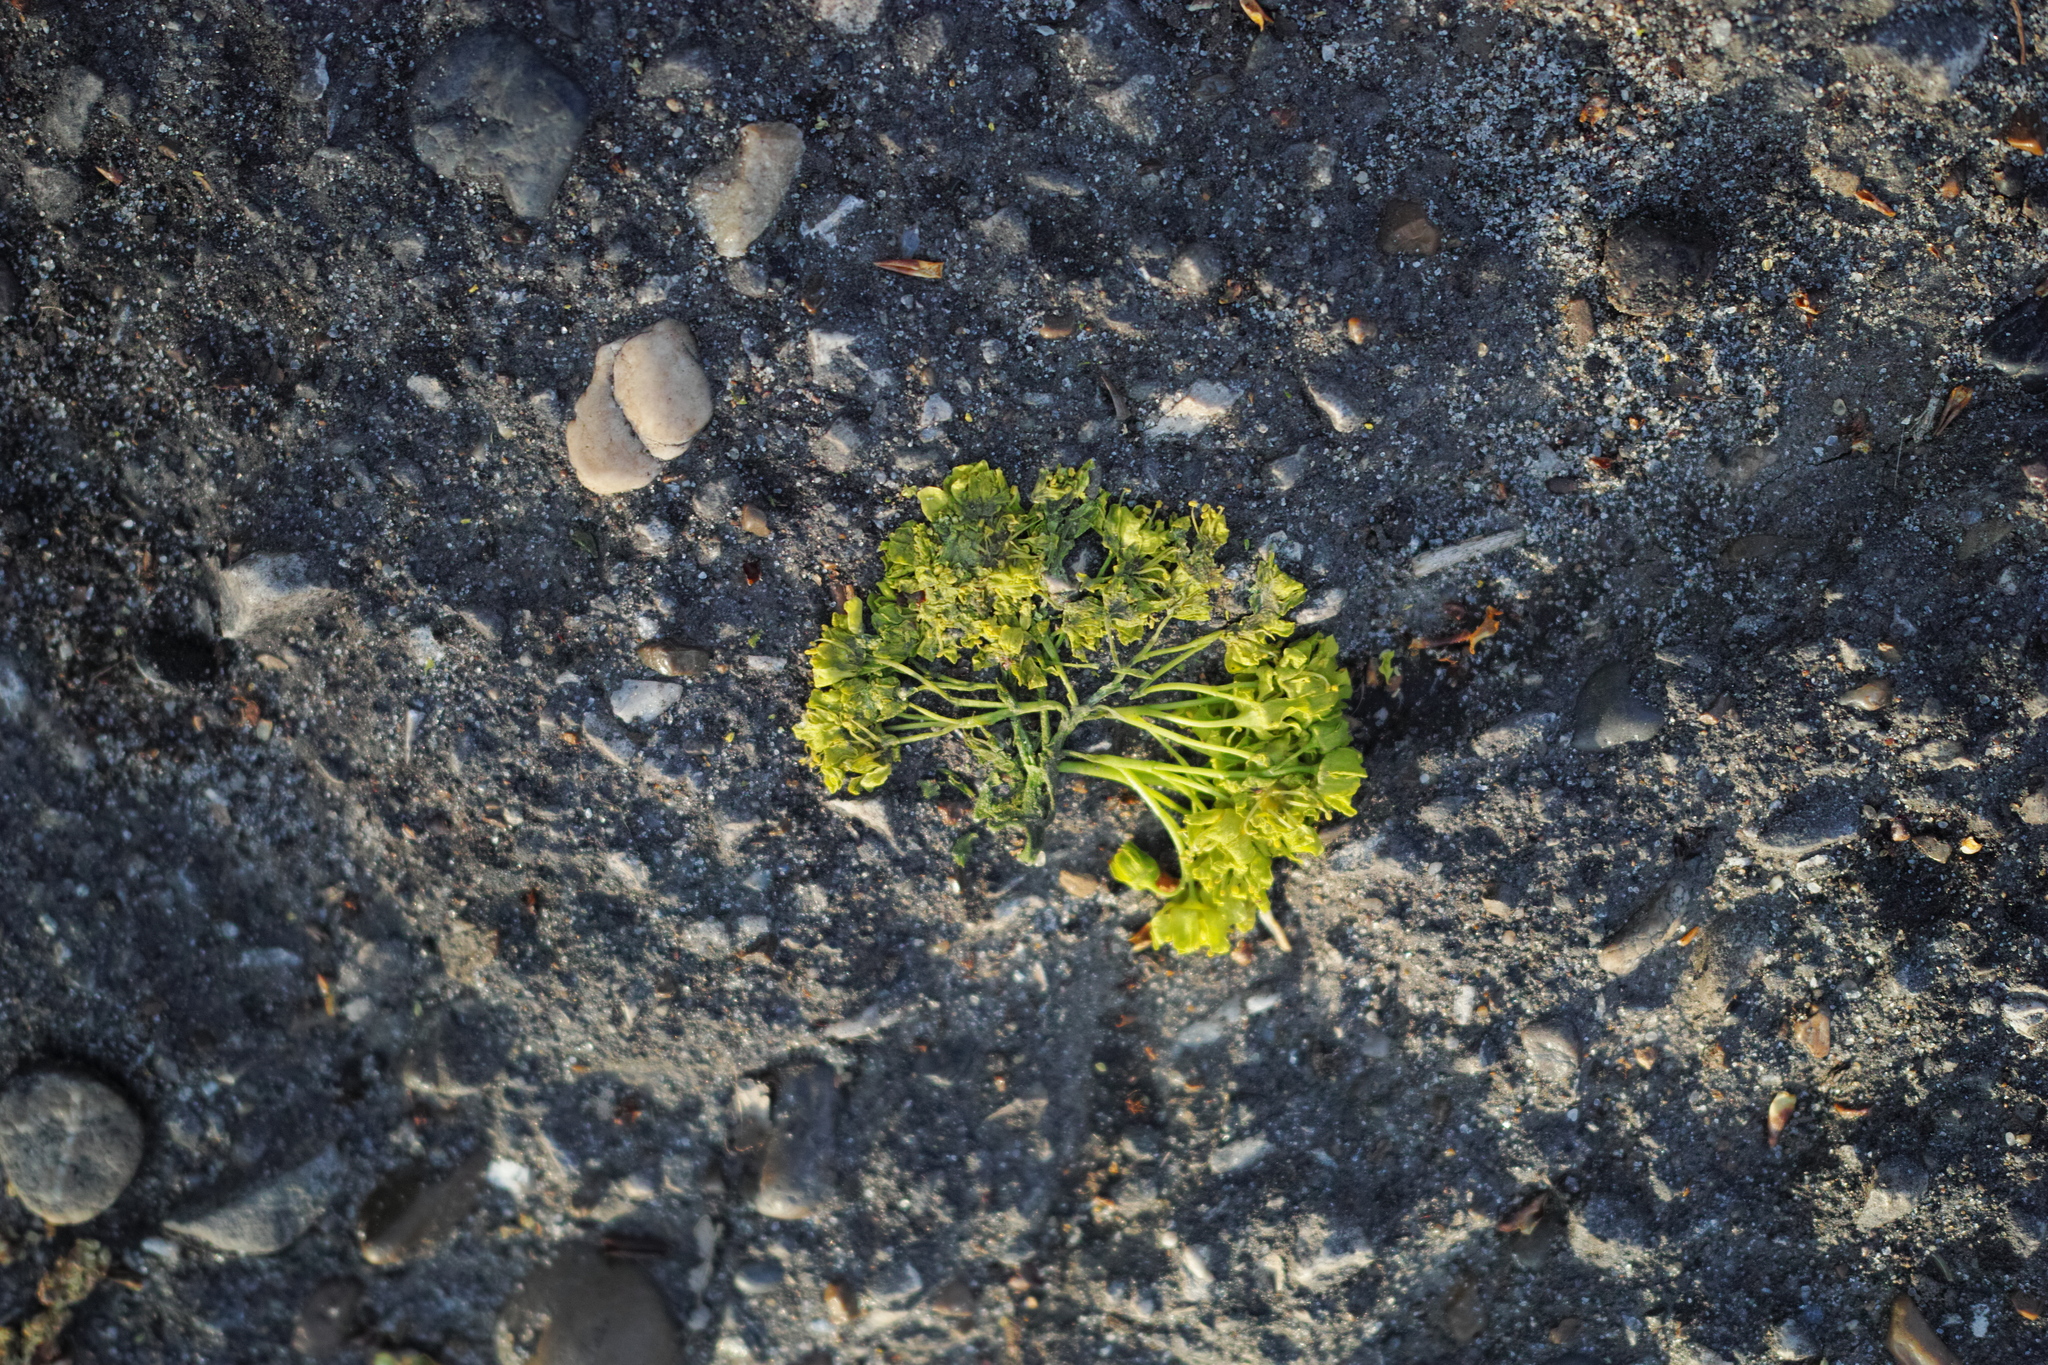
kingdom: Plantae
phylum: Tracheophyta
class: Magnoliopsida
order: Sapindales
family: Sapindaceae
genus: Acer
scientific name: Acer platanoides
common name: Norway maple
